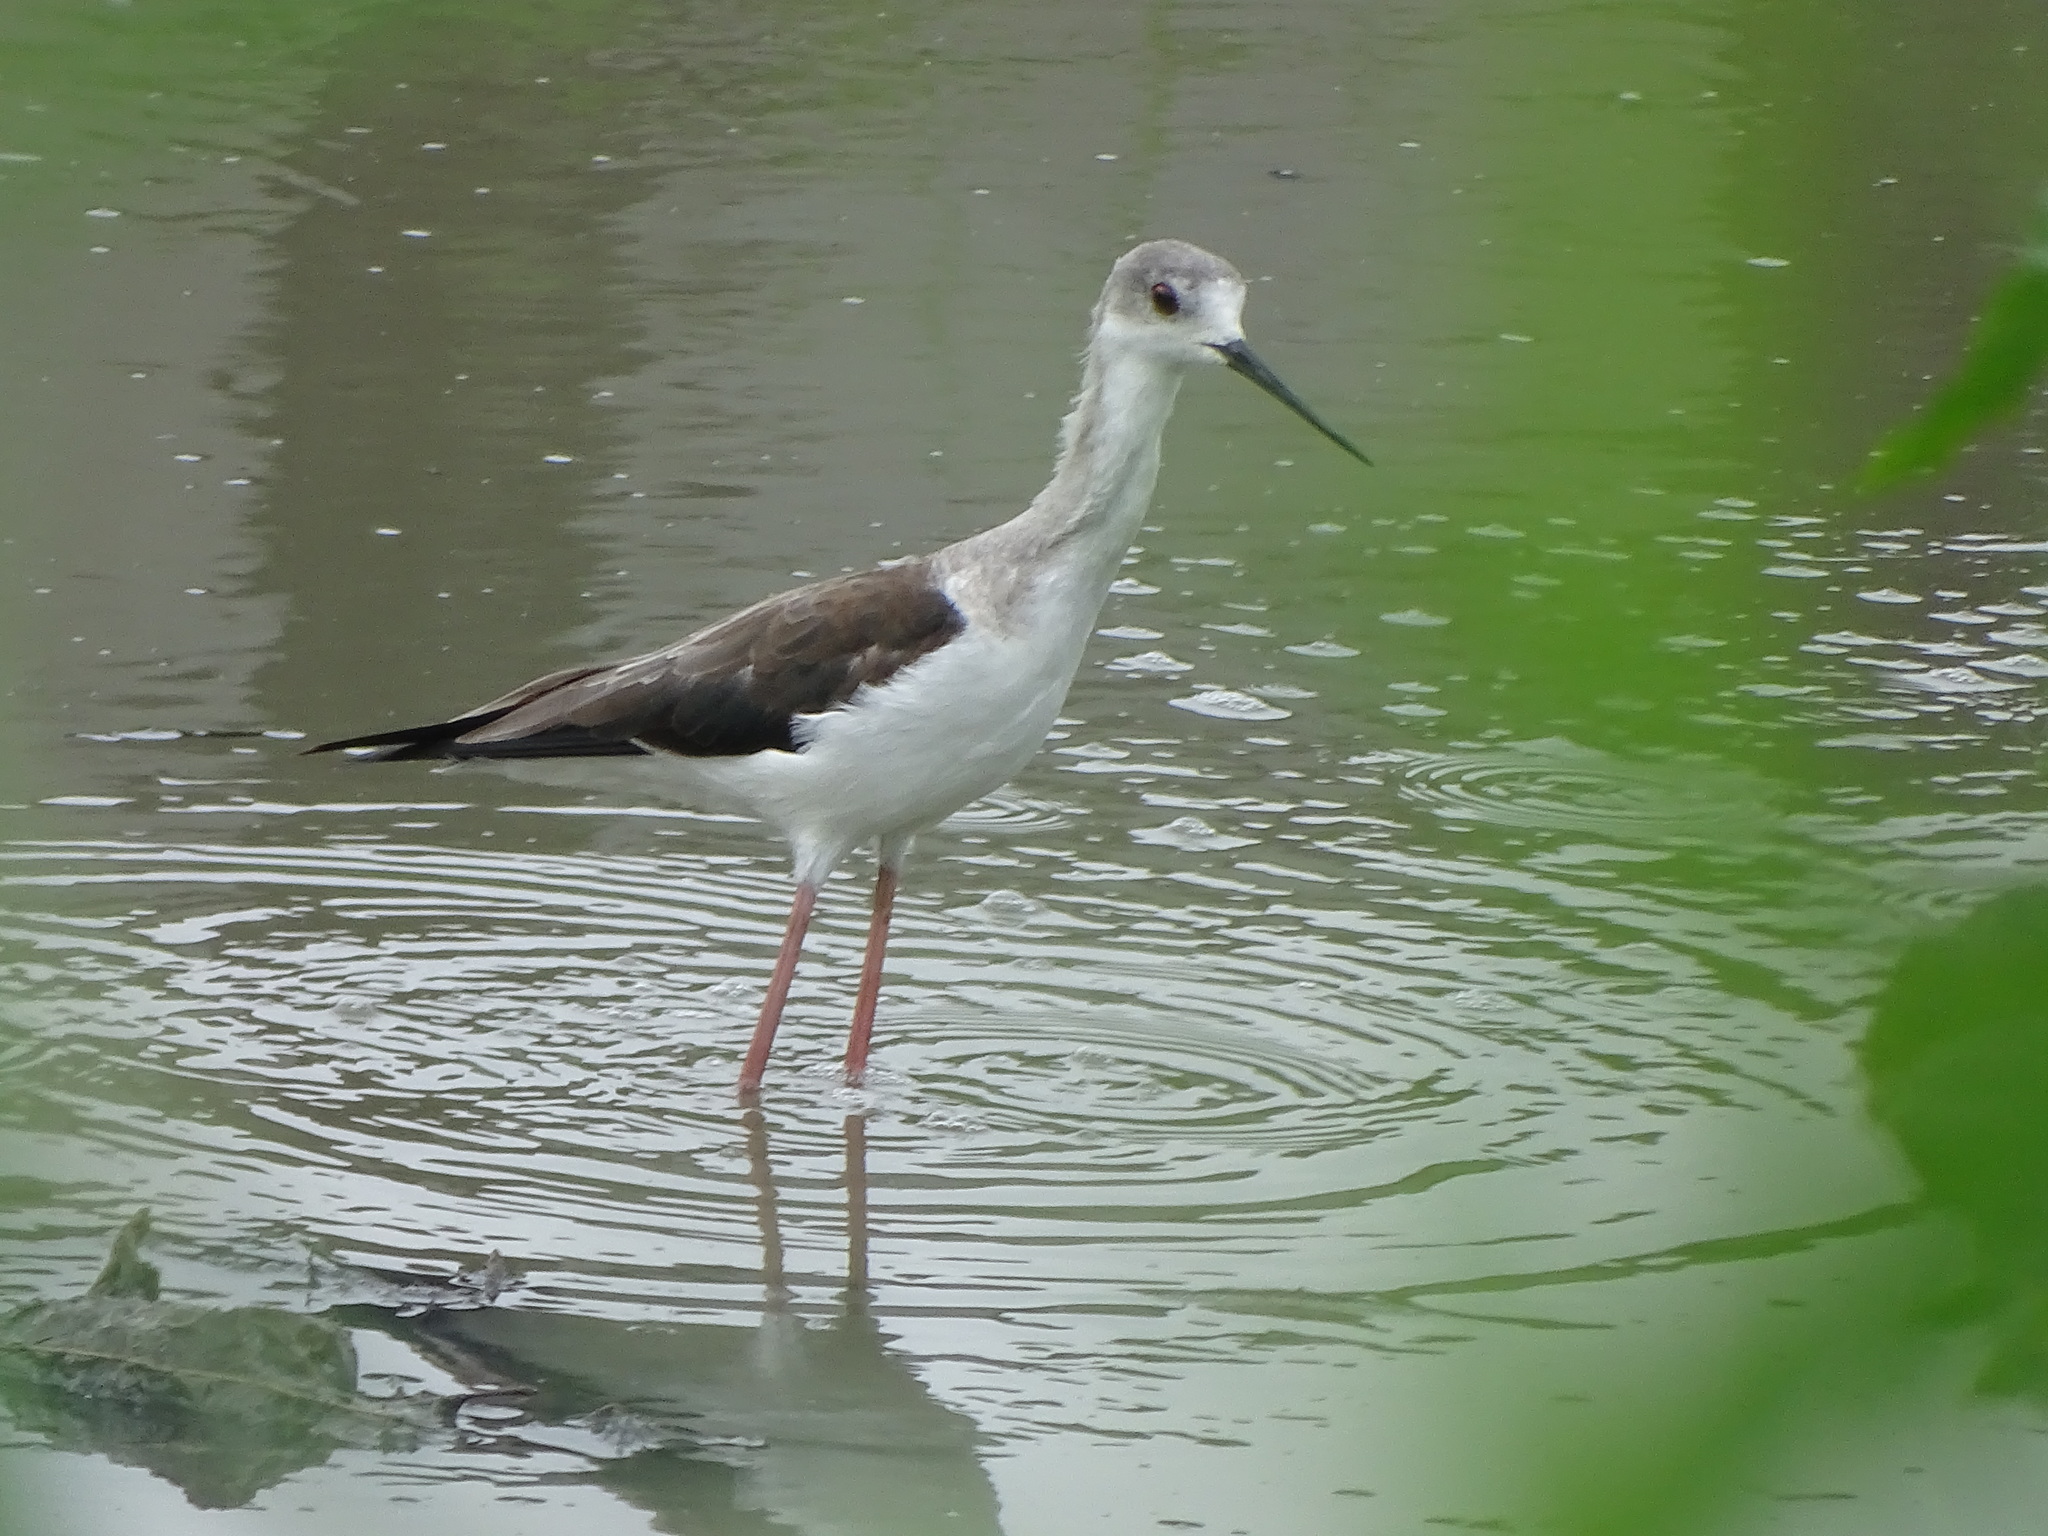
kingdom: Animalia
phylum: Chordata
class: Aves
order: Charadriiformes
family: Recurvirostridae
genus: Himantopus
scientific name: Himantopus himantopus
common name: Black-winged stilt
